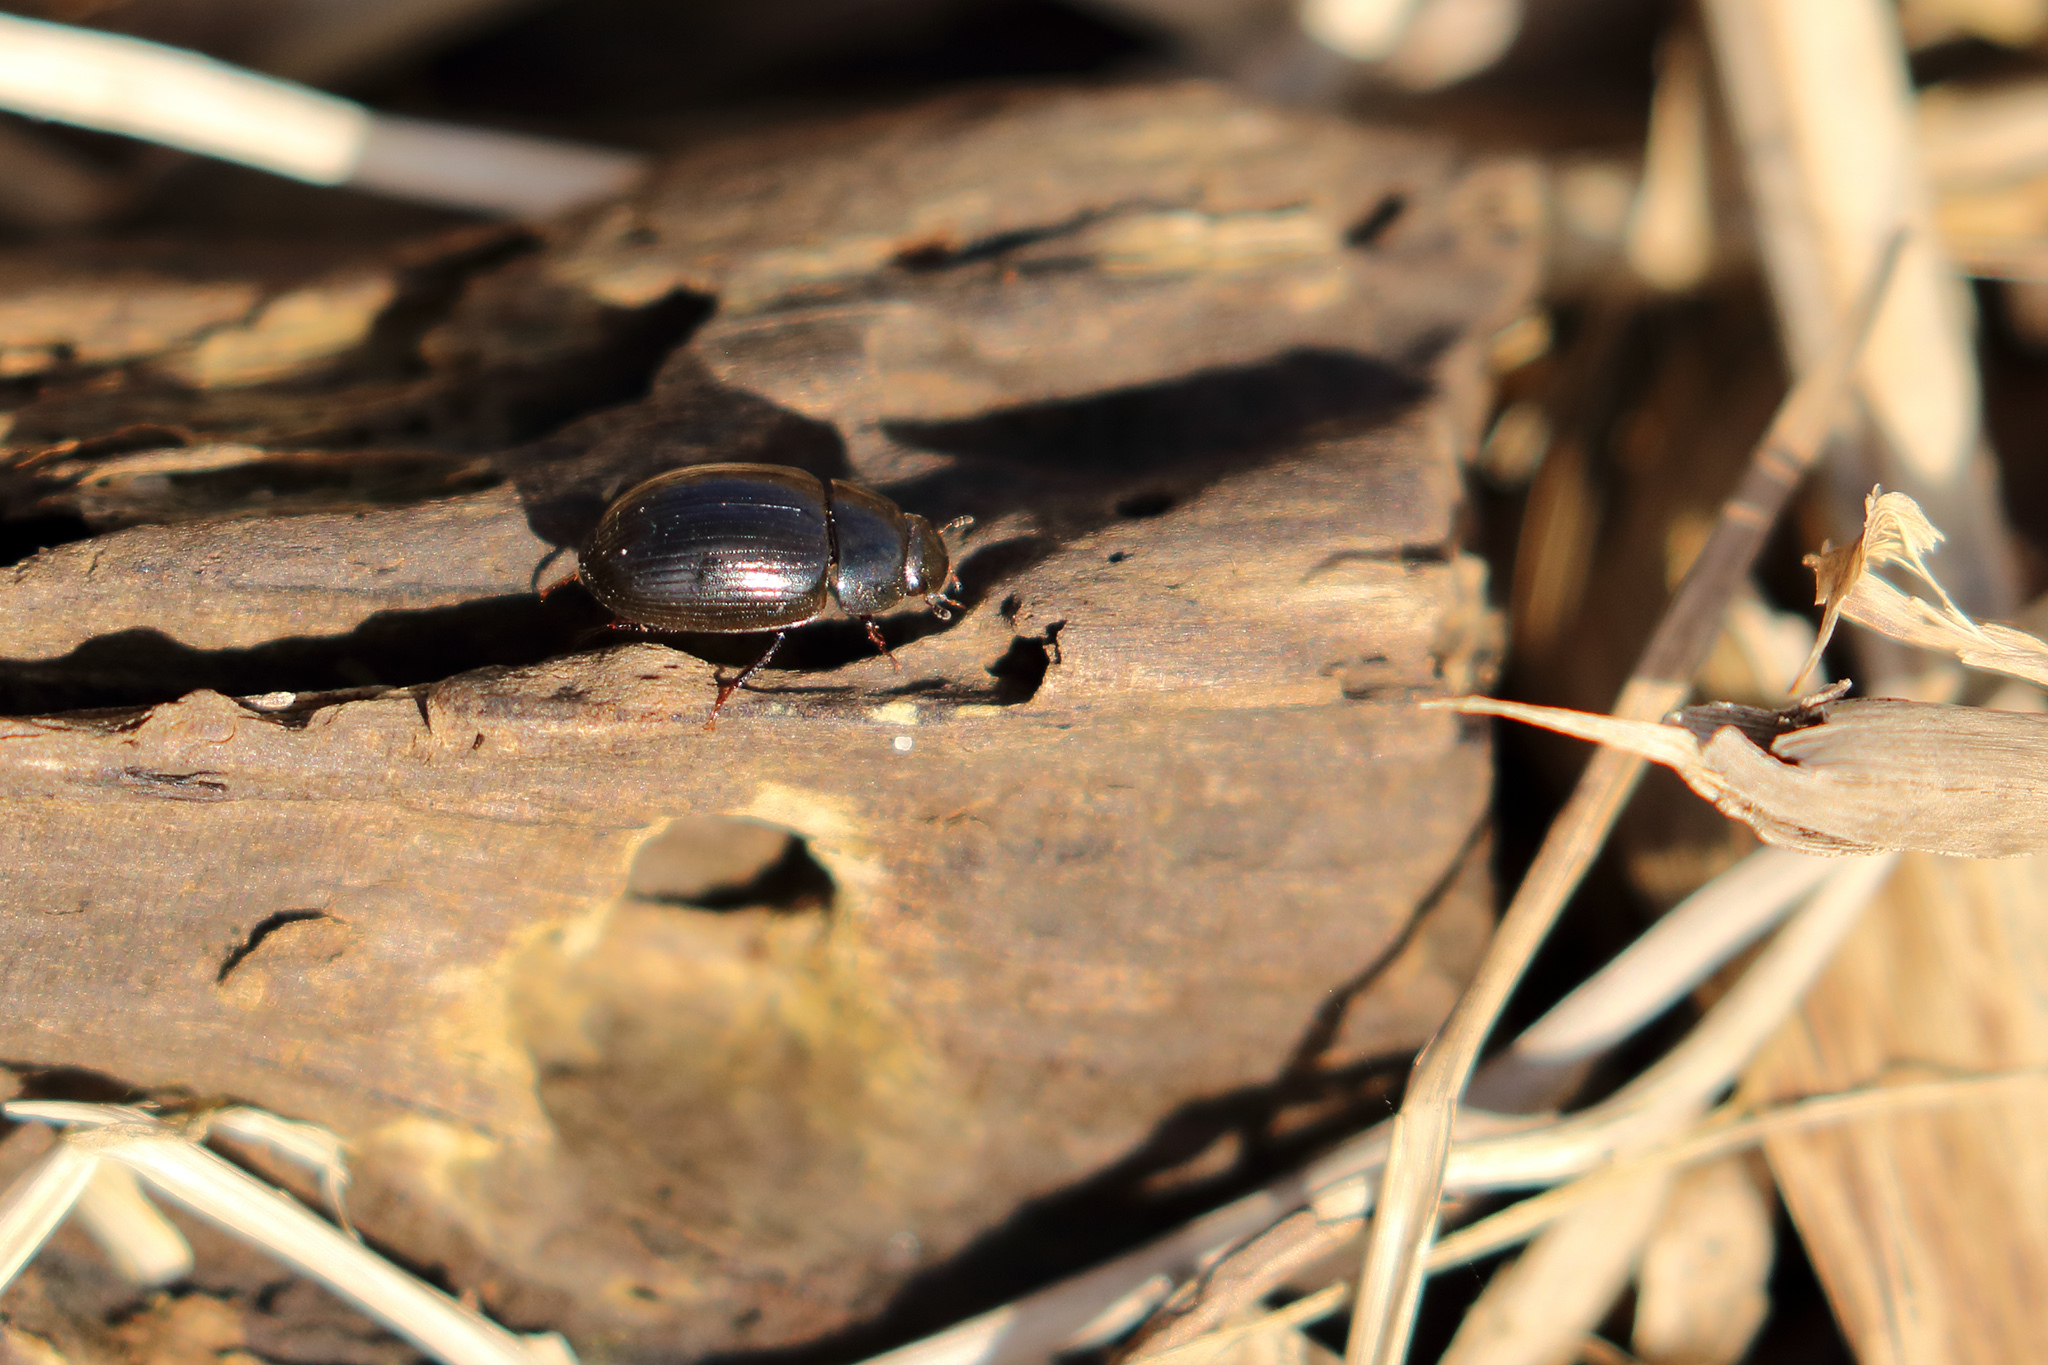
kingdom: Animalia
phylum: Arthropoda
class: Insecta
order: Coleoptera
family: Hydrophilidae
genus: Hydrobius
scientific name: Hydrobius subrotundus
